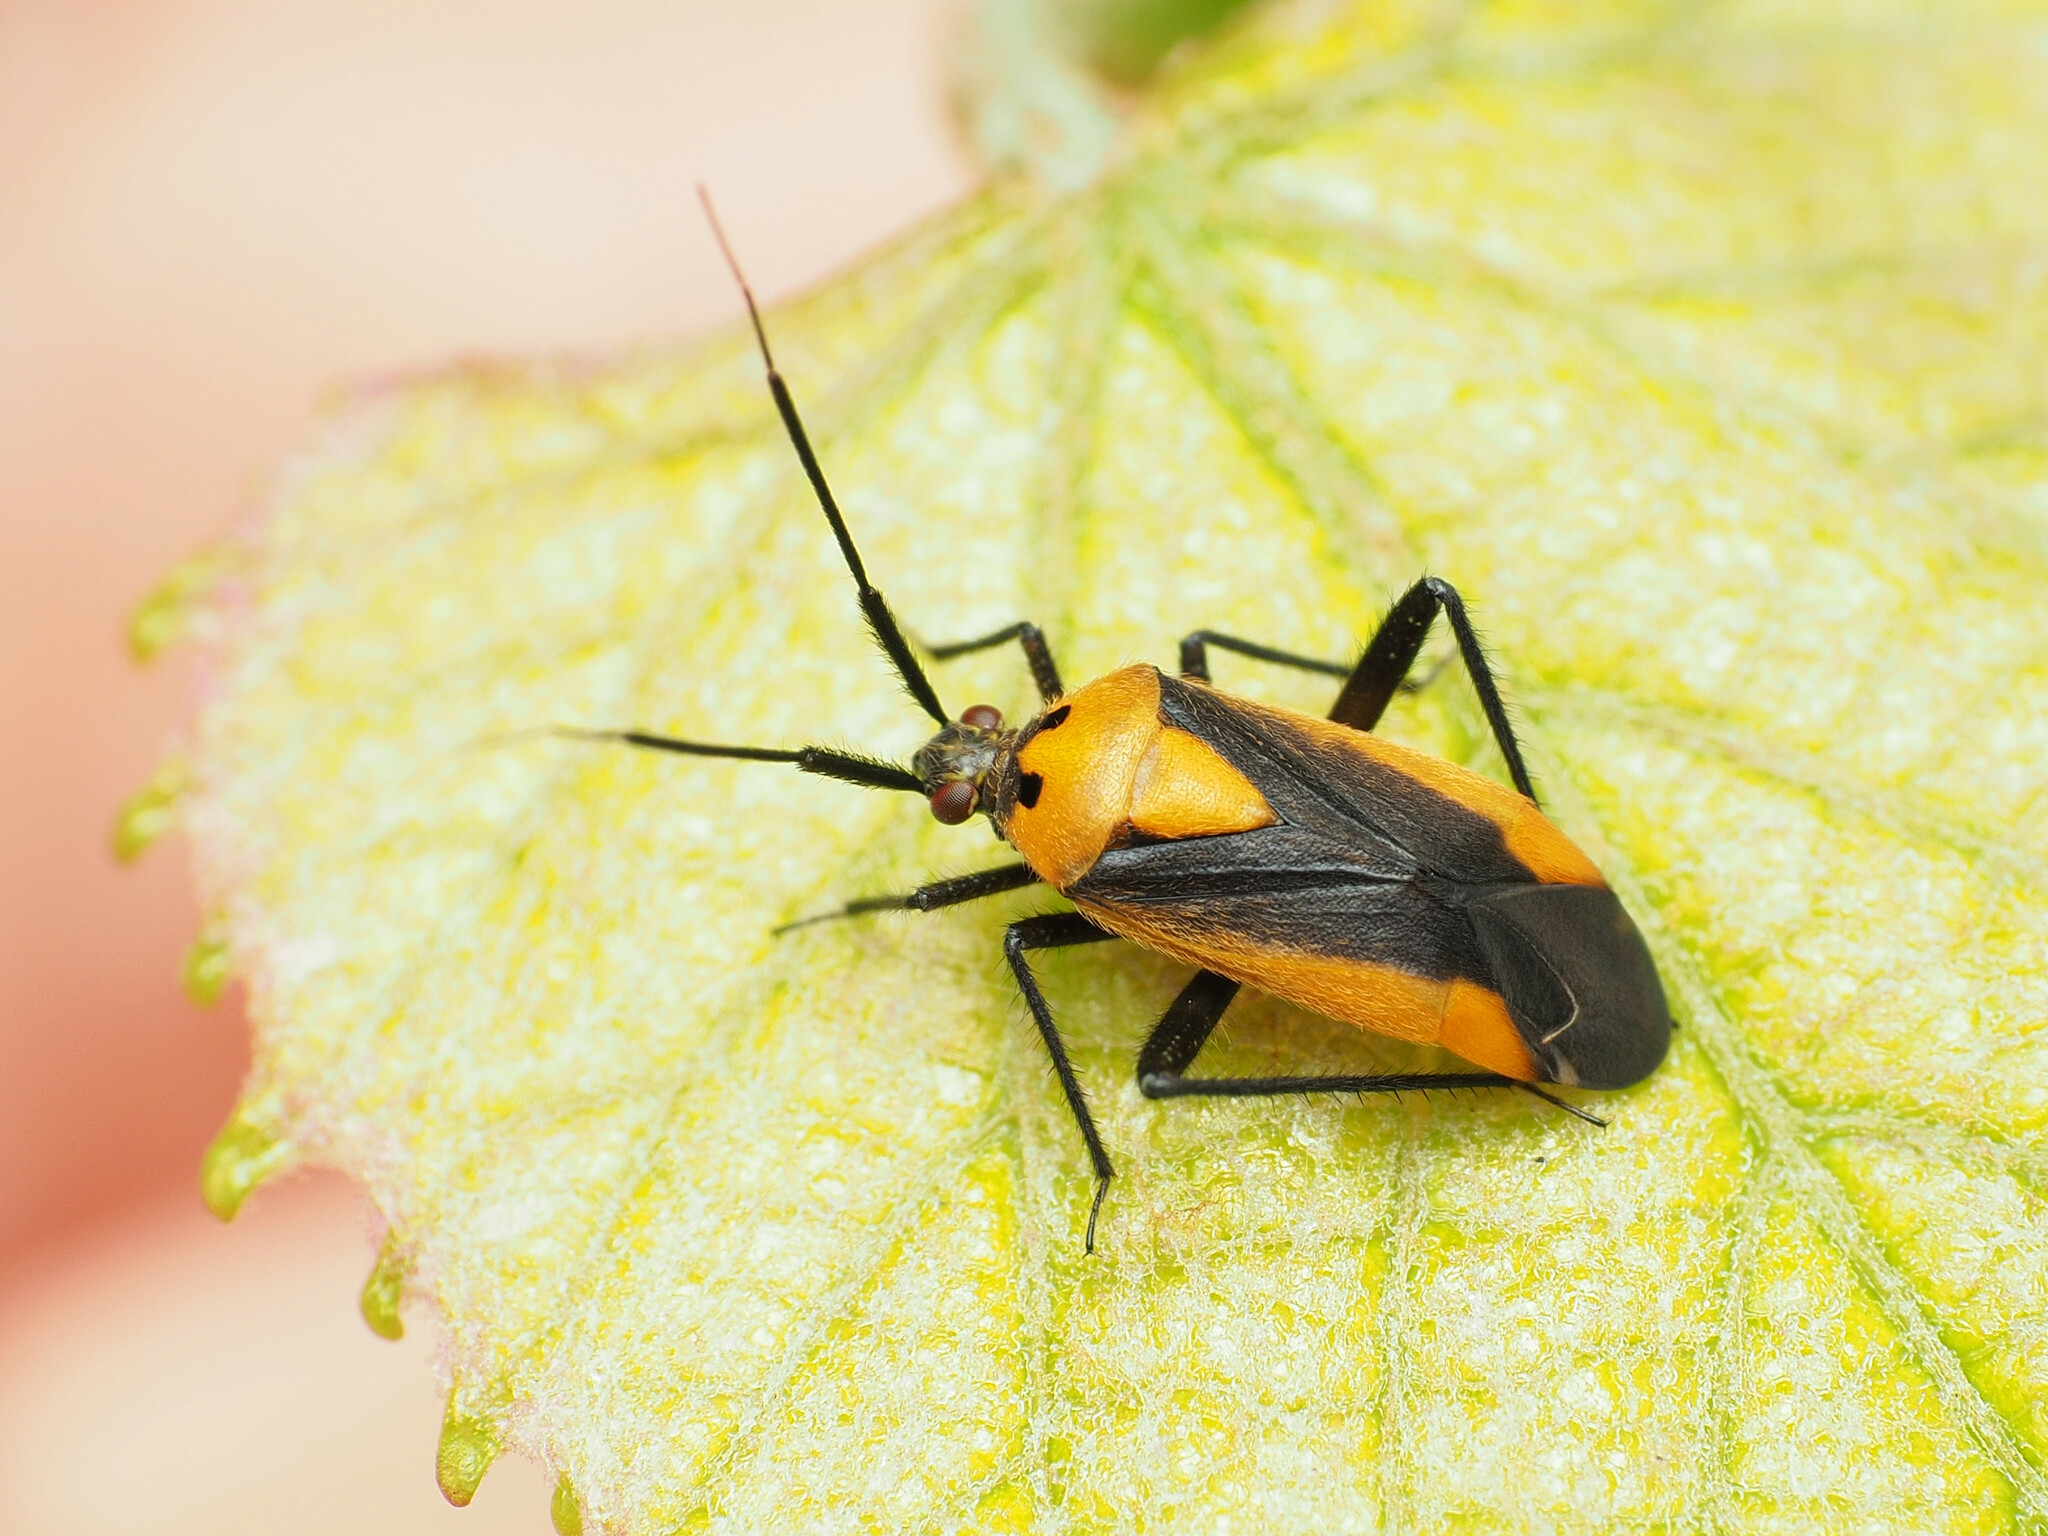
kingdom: Animalia
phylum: Arthropoda
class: Insecta
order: Hemiptera
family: Miridae
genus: Taedia
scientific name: Taedia scrupea
